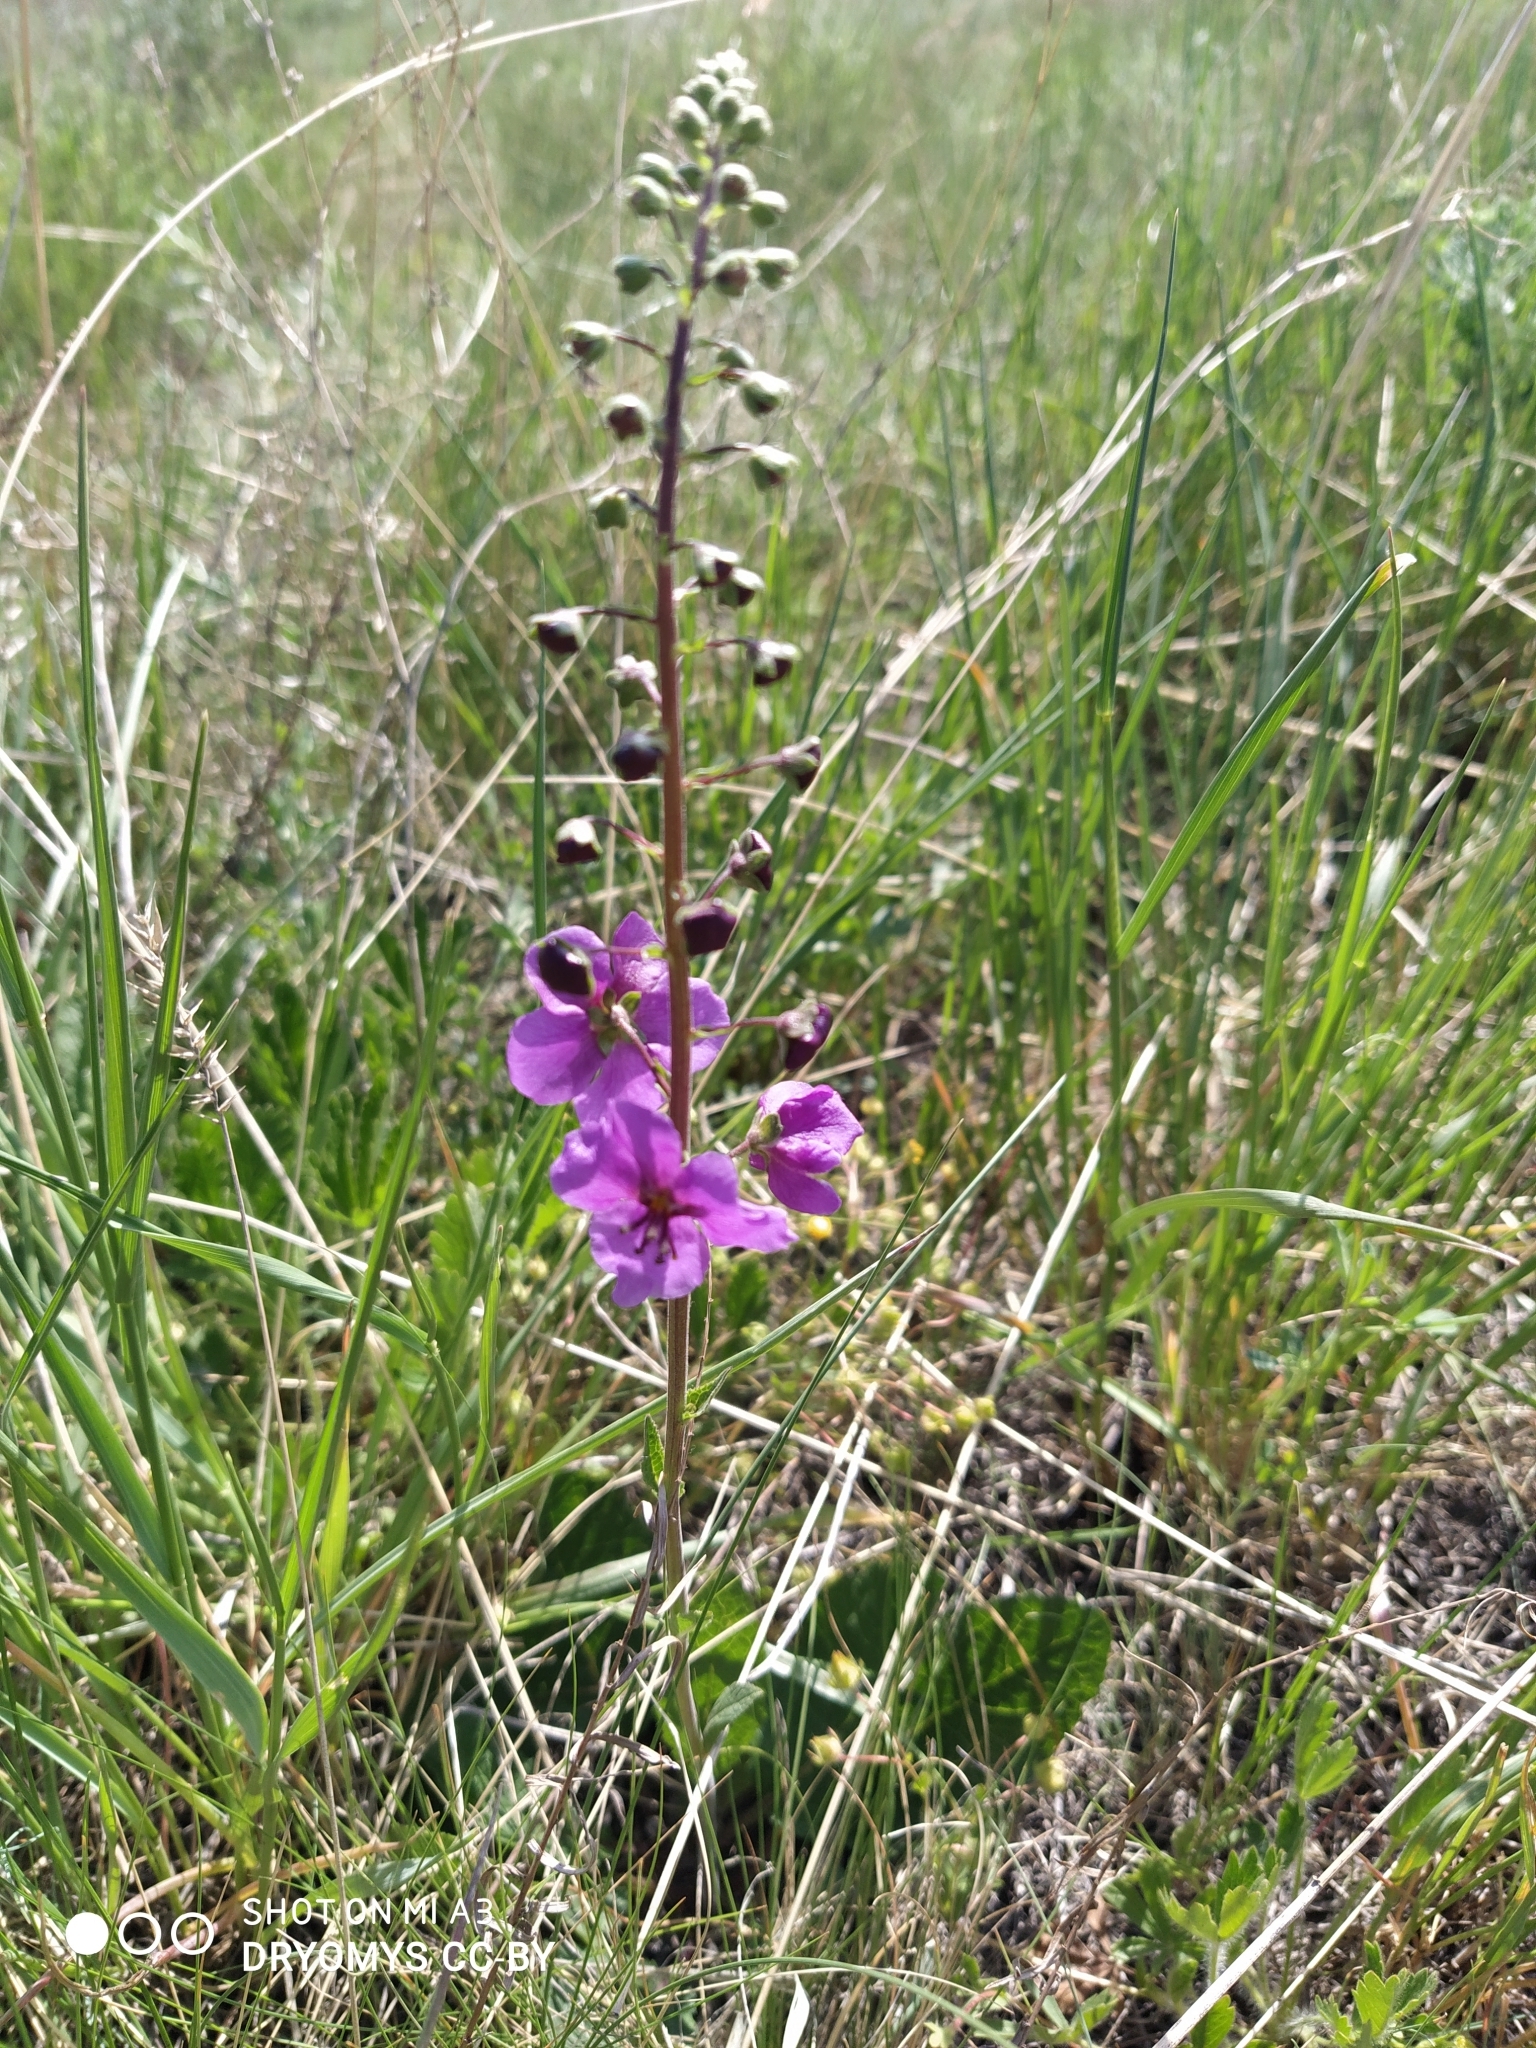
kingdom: Plantae
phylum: Tracheophyta
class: Magnoliopsida
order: Lamiales
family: Scrophulariaceae
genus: Verbascum
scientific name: Verbascum phoeniceum
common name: Purple mullein
